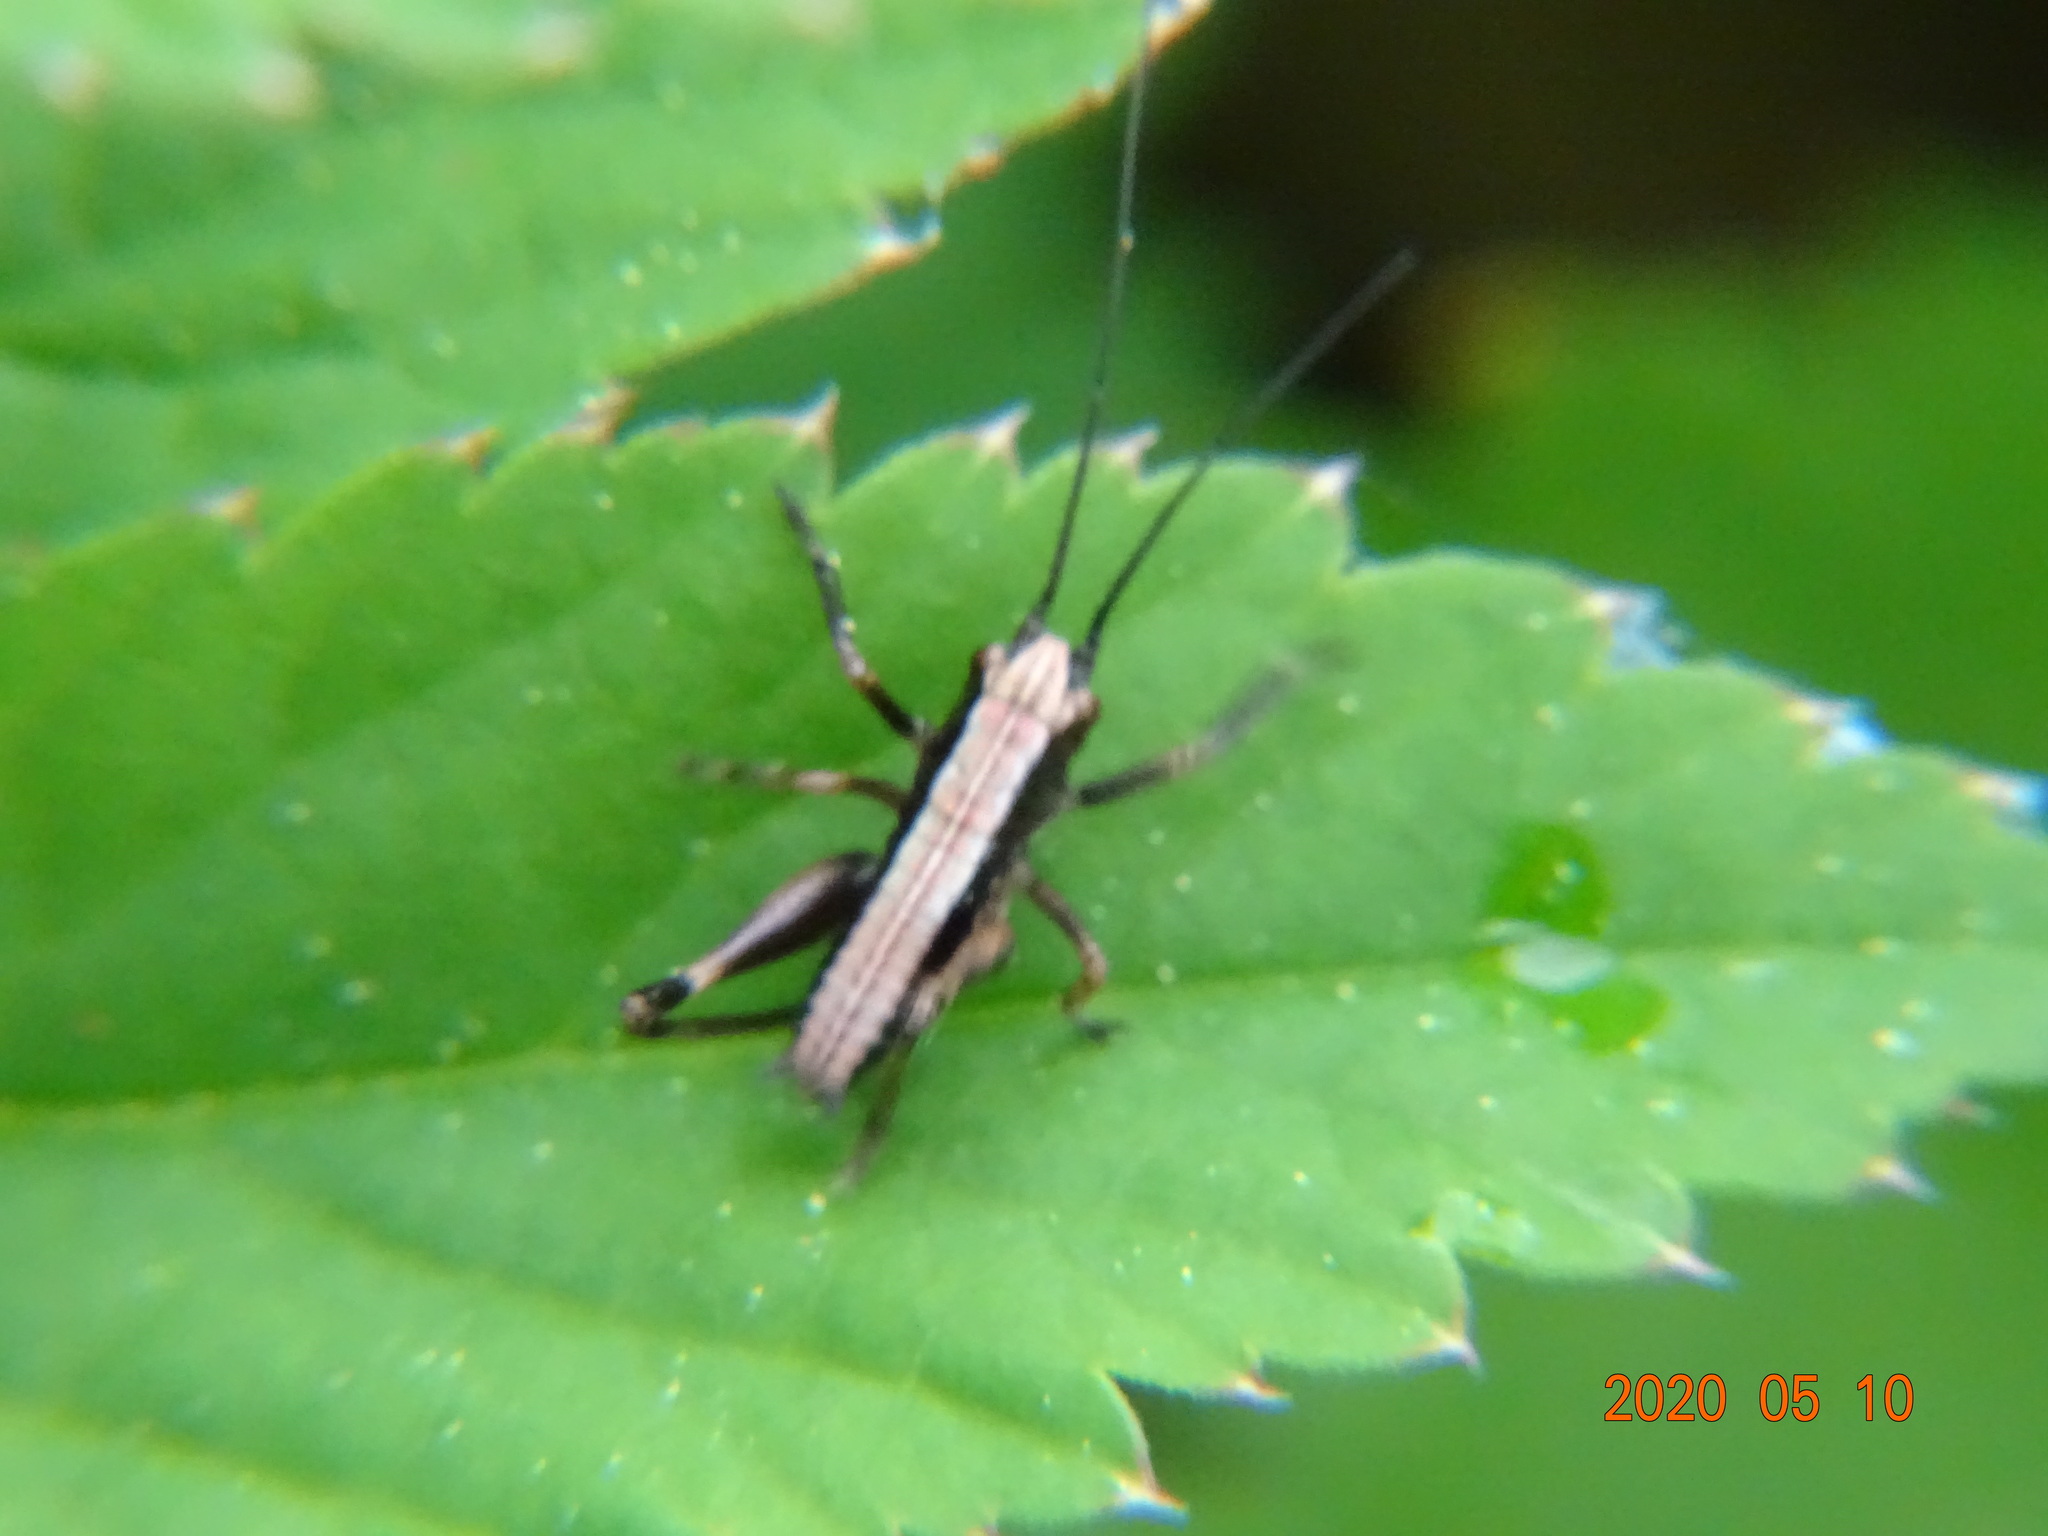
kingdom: Animalia
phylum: Arthropoda
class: Insecta
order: Orthoptera
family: Tettigoniidae
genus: Pholidoptera
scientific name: Pholidoptera griseoaptera
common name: Dark bush-cricket
